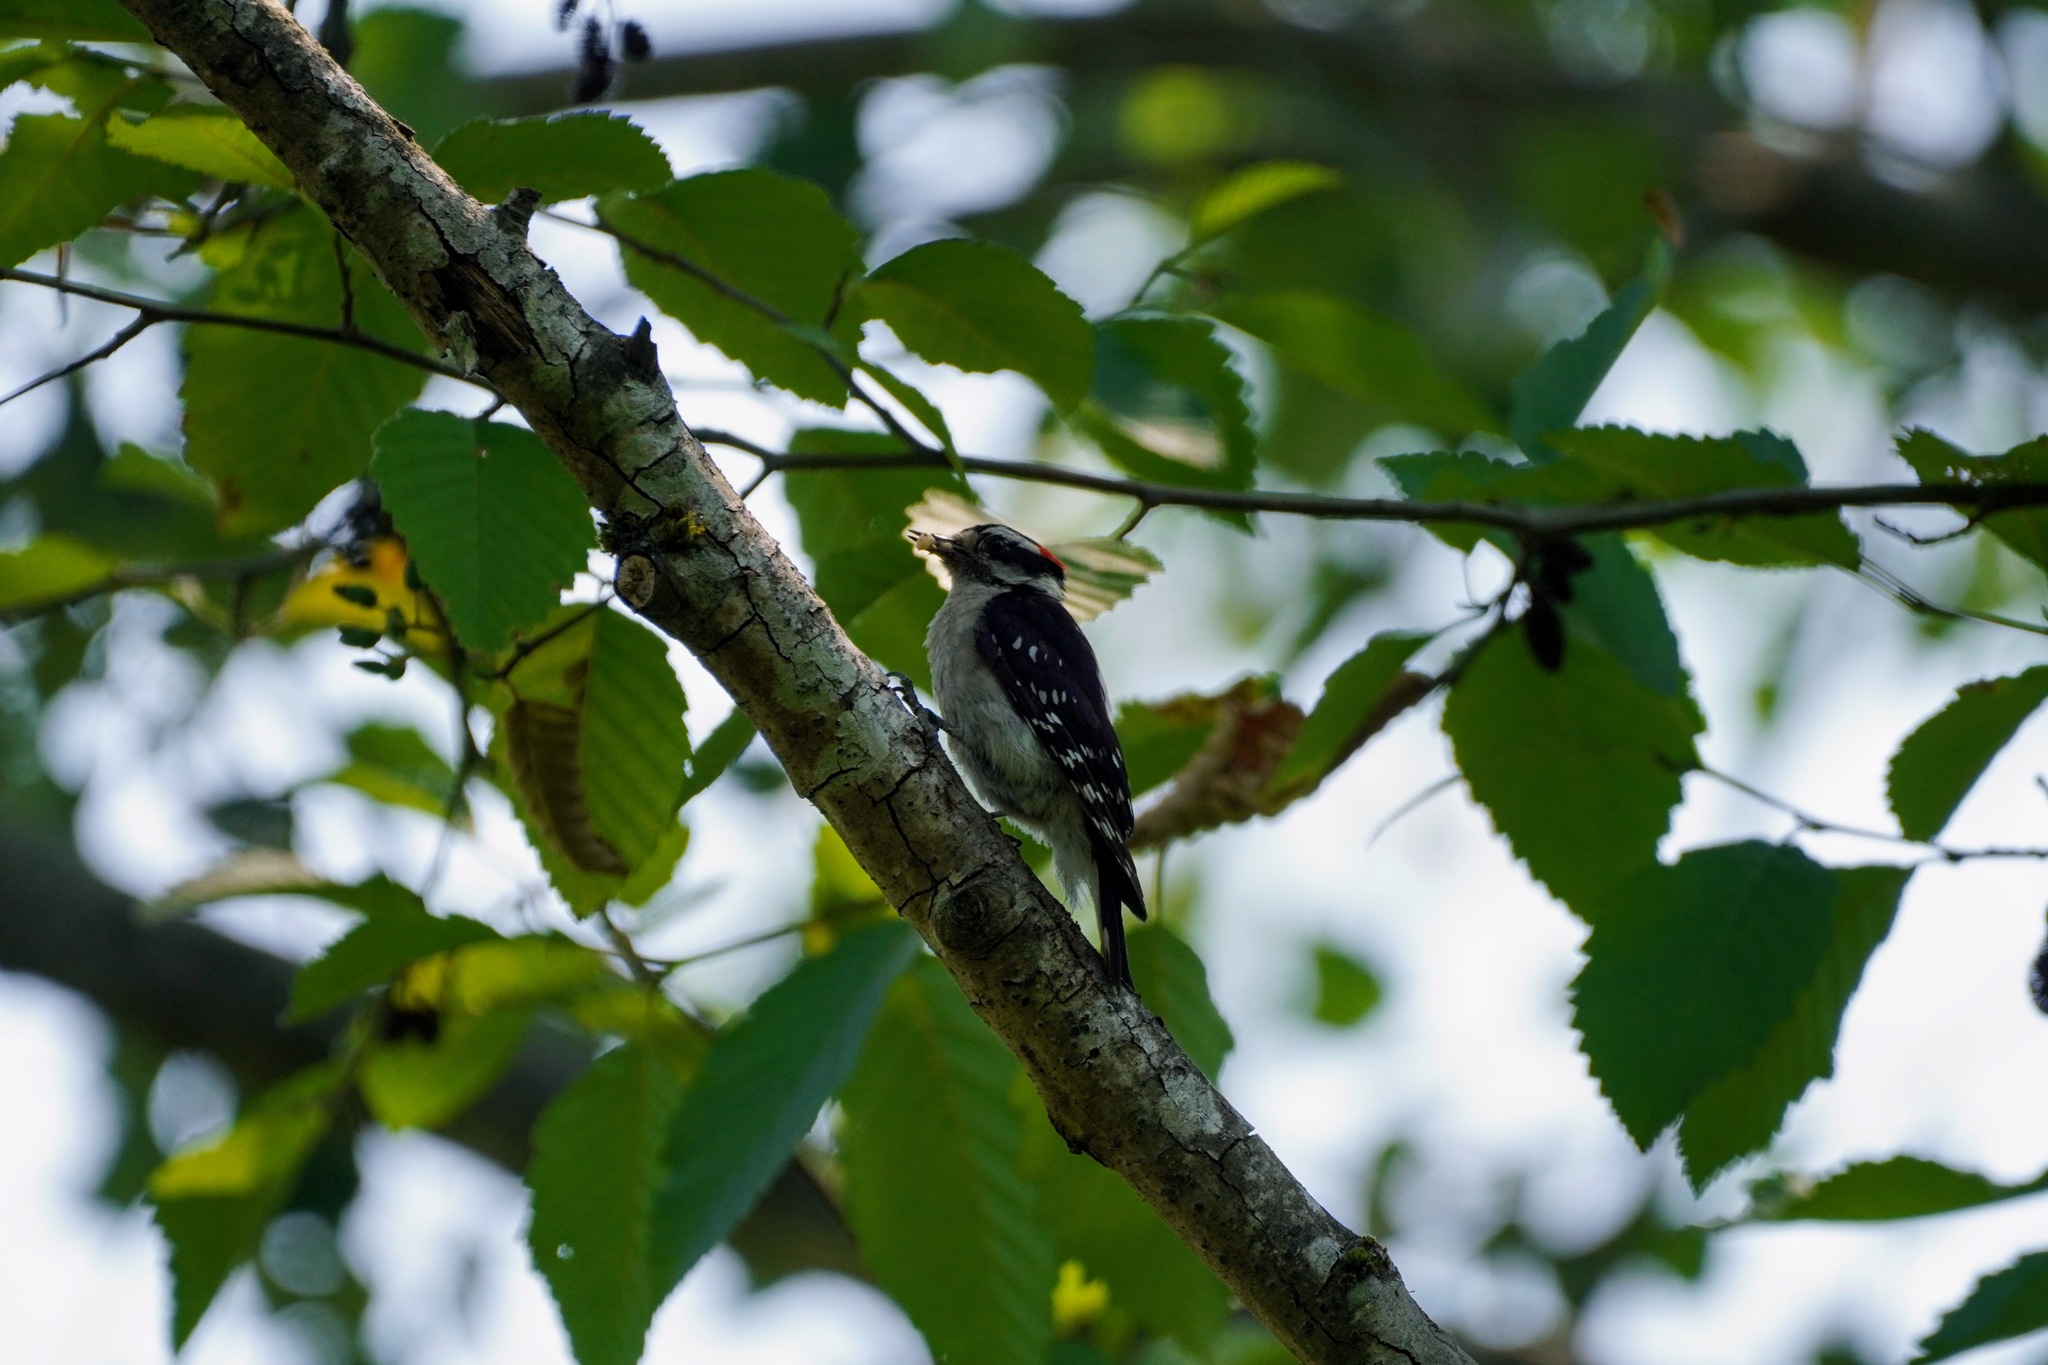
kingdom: Animalia
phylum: Chordata
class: Aves
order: Piciformes
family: Picidae
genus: Dryobates
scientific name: Dryobates pubescens
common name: Downy woodpecker
